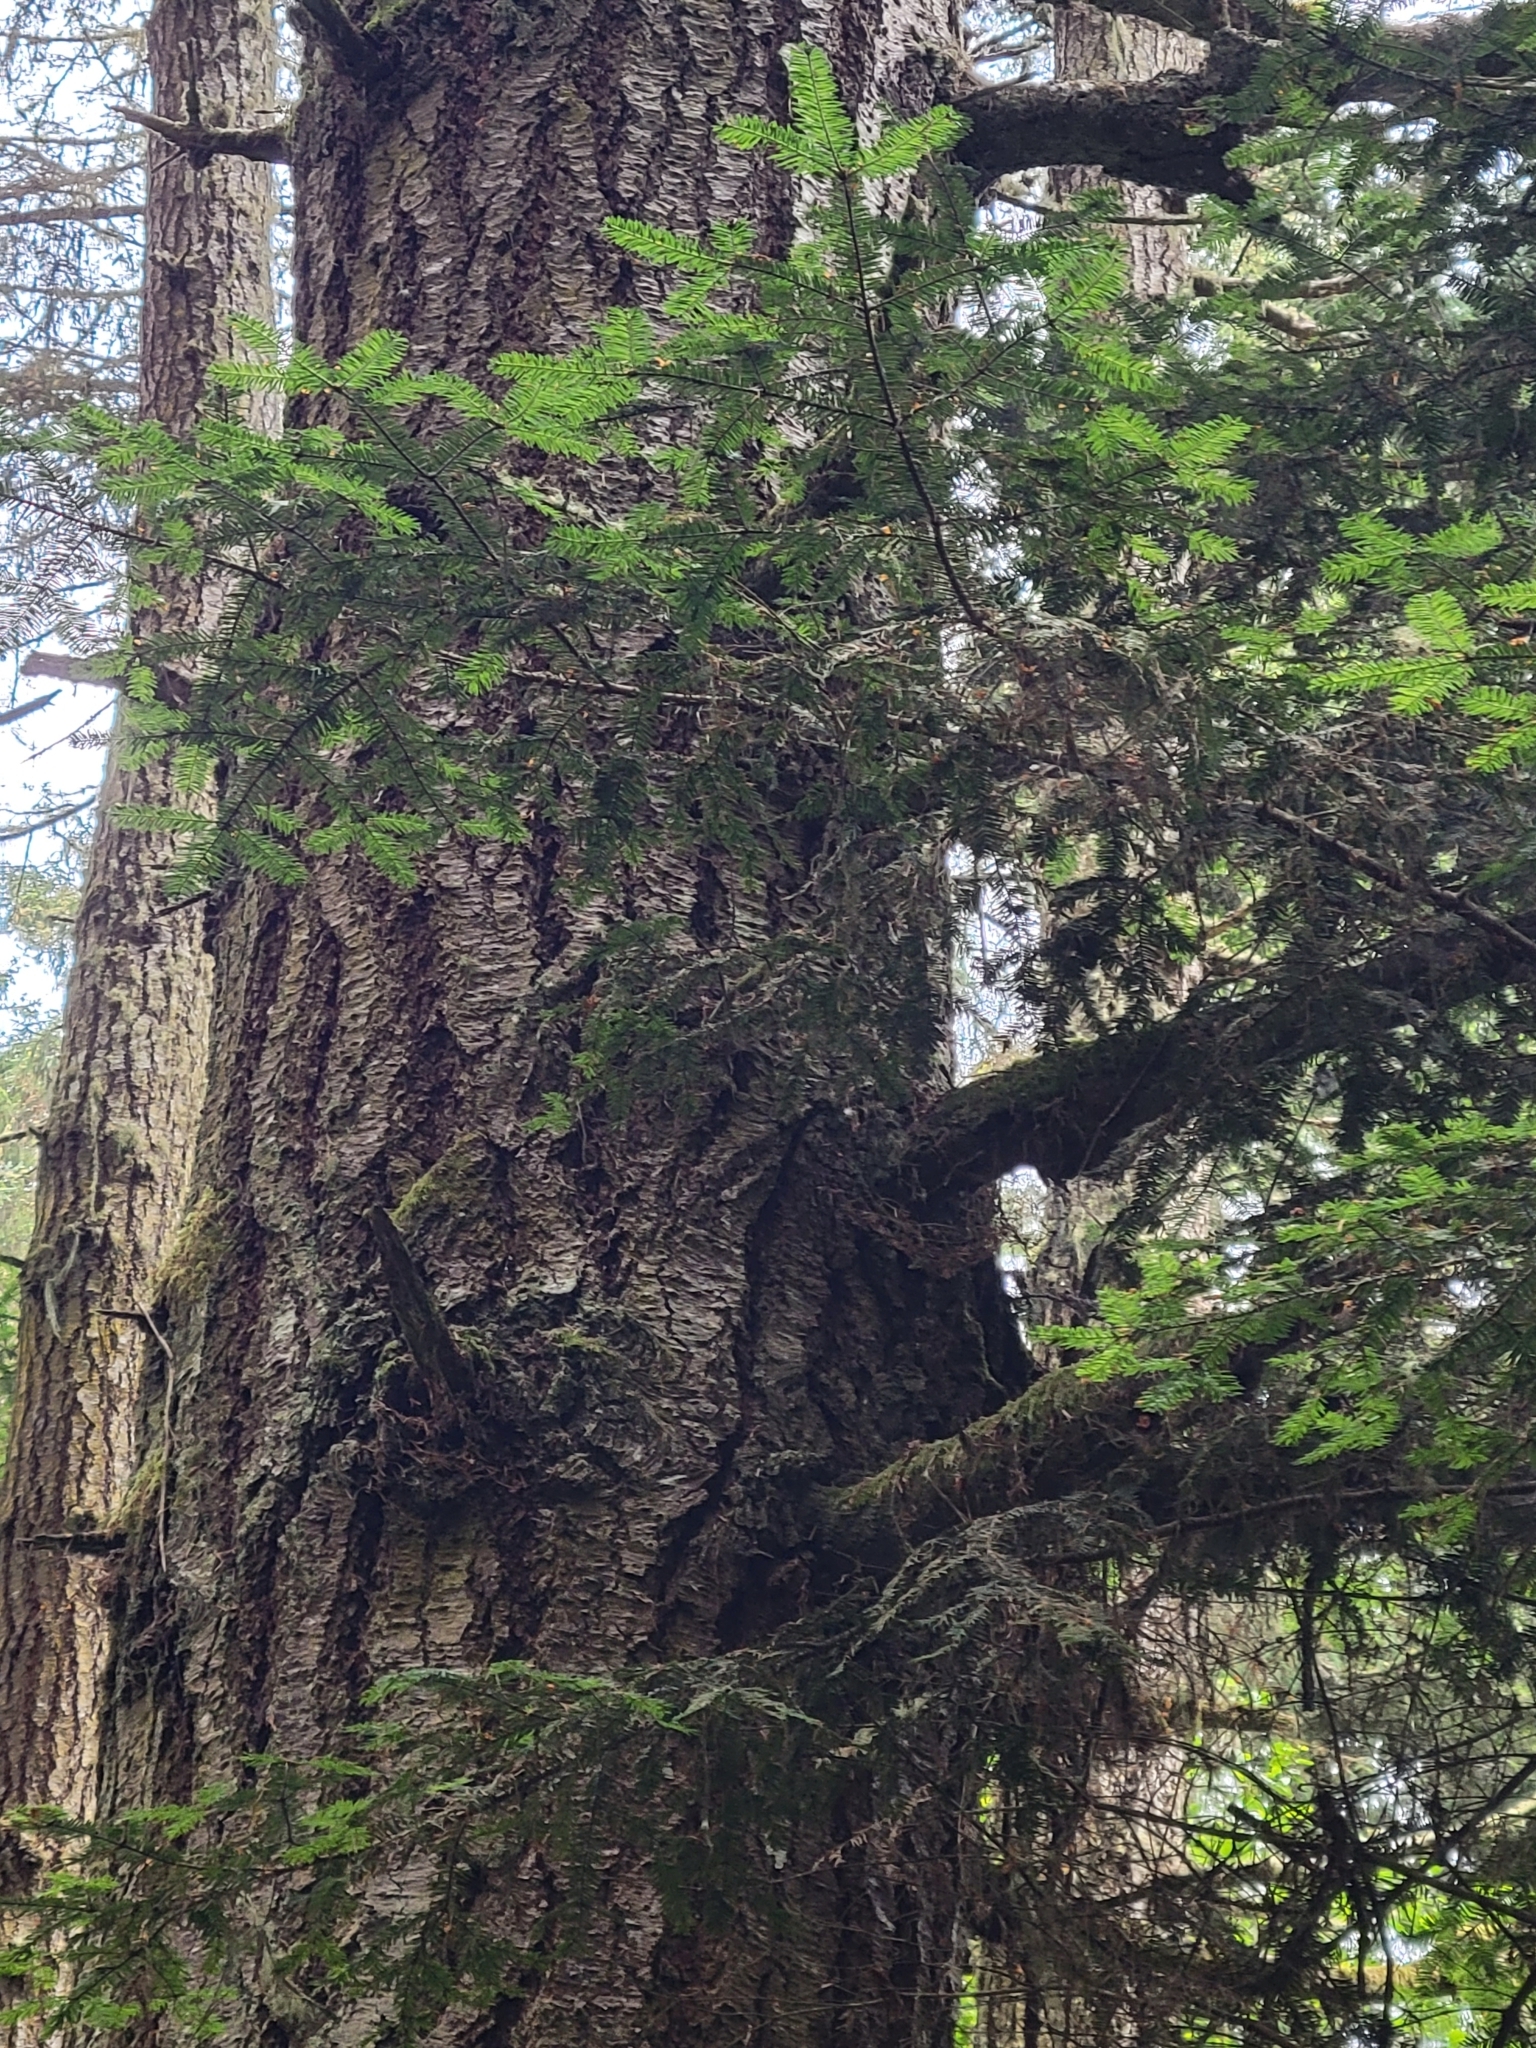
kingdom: Plantae
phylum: Tracheophyta
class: Pinopsida
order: Pinales
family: Pinaceae
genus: Abies
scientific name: Abies grandis
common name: Giant fir
